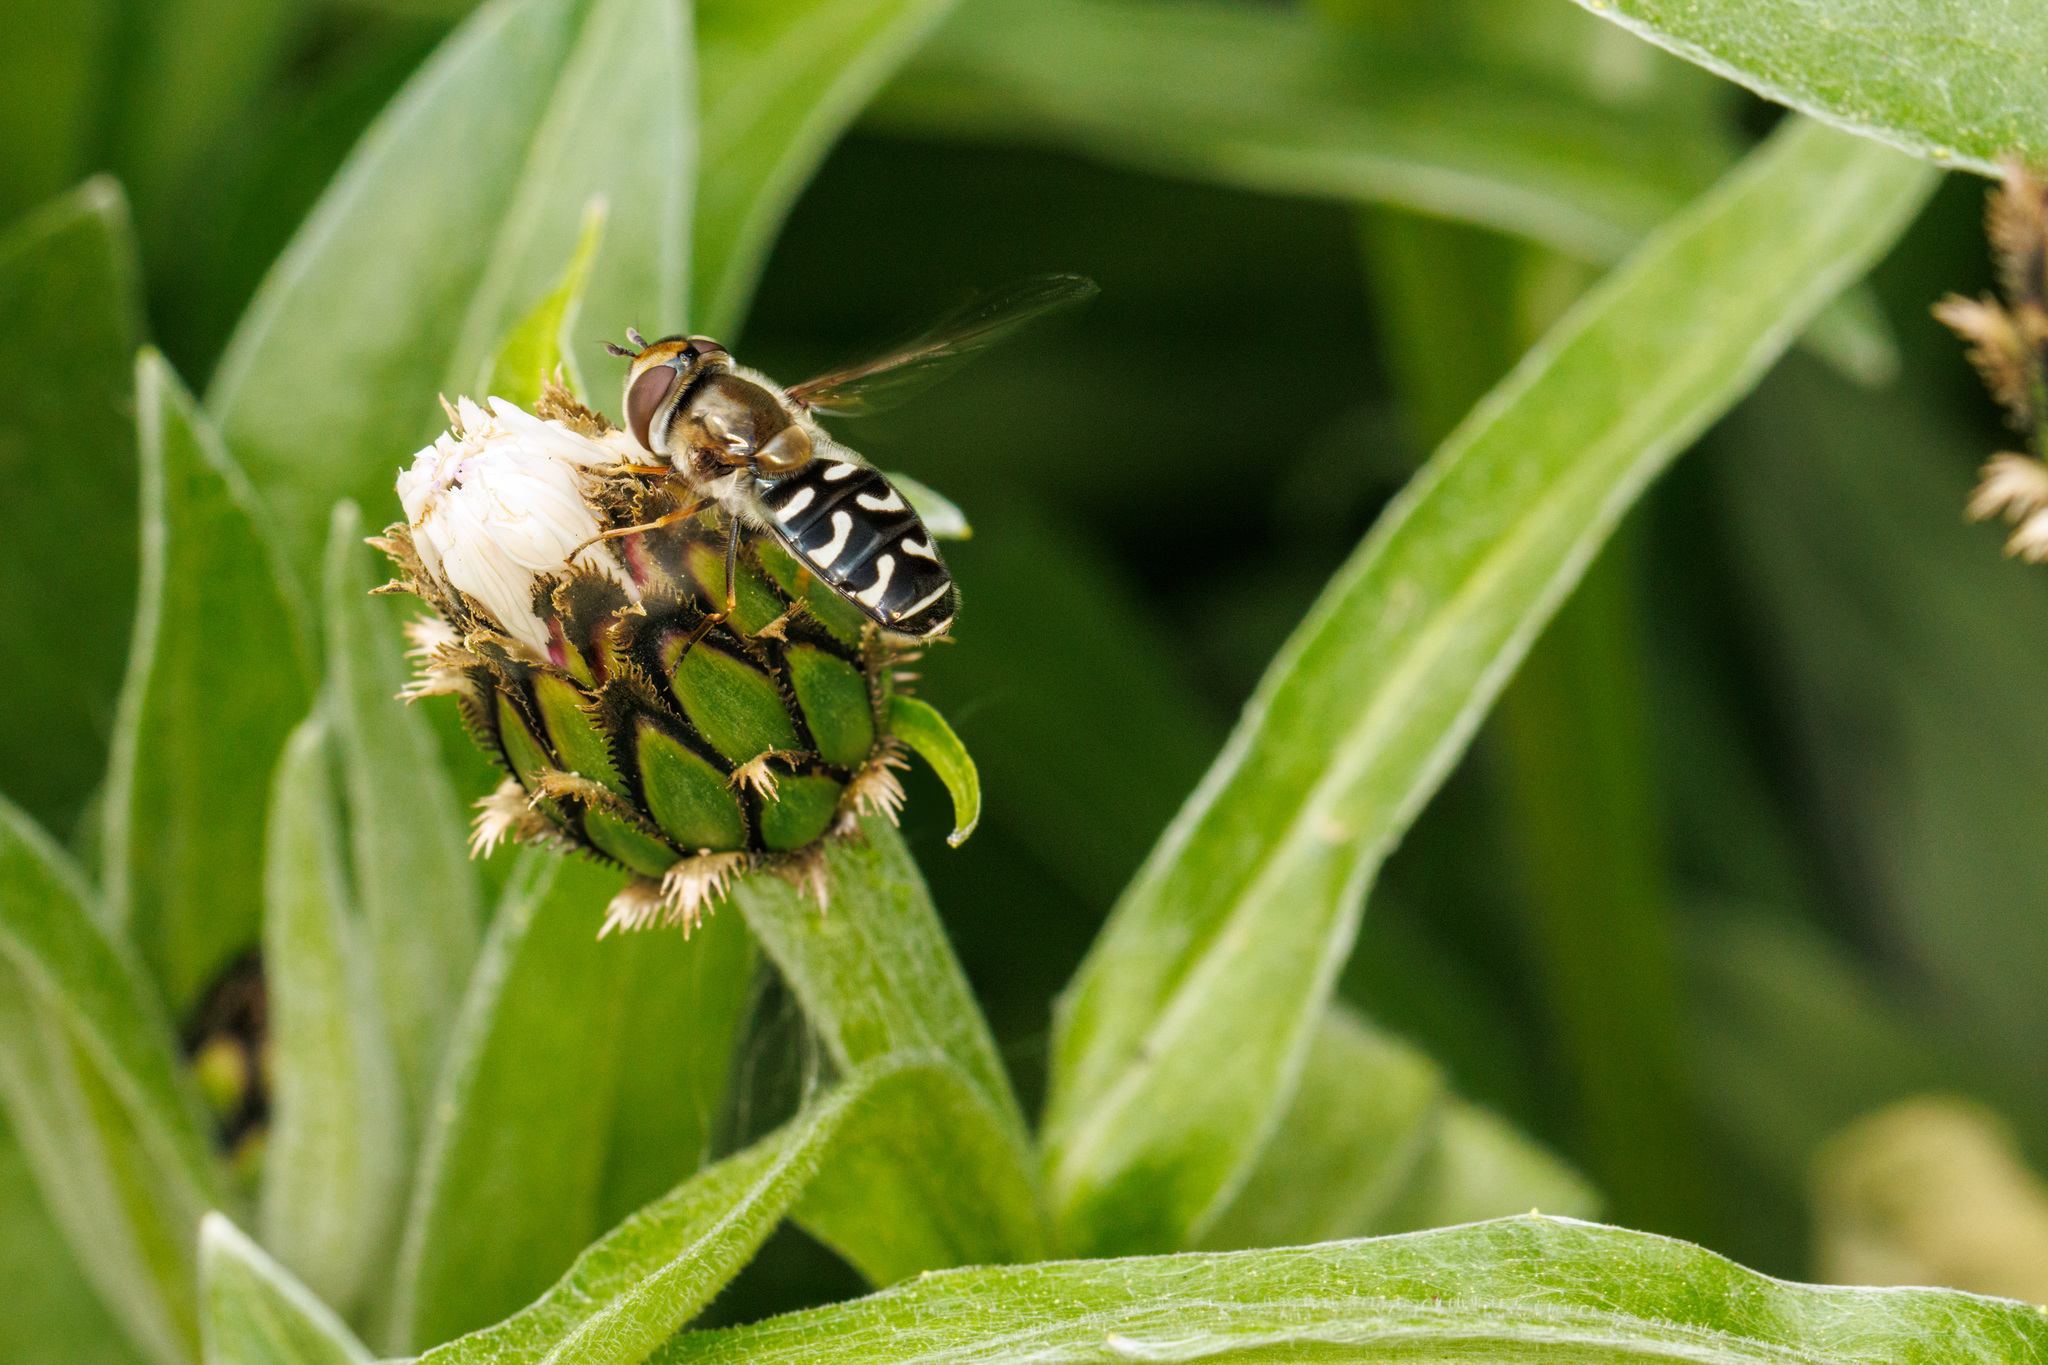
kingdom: Animalia
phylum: Arthropoda
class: Insecta
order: Diptera
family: Syrphidae
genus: Scaeva
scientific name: Scaeva affinis
